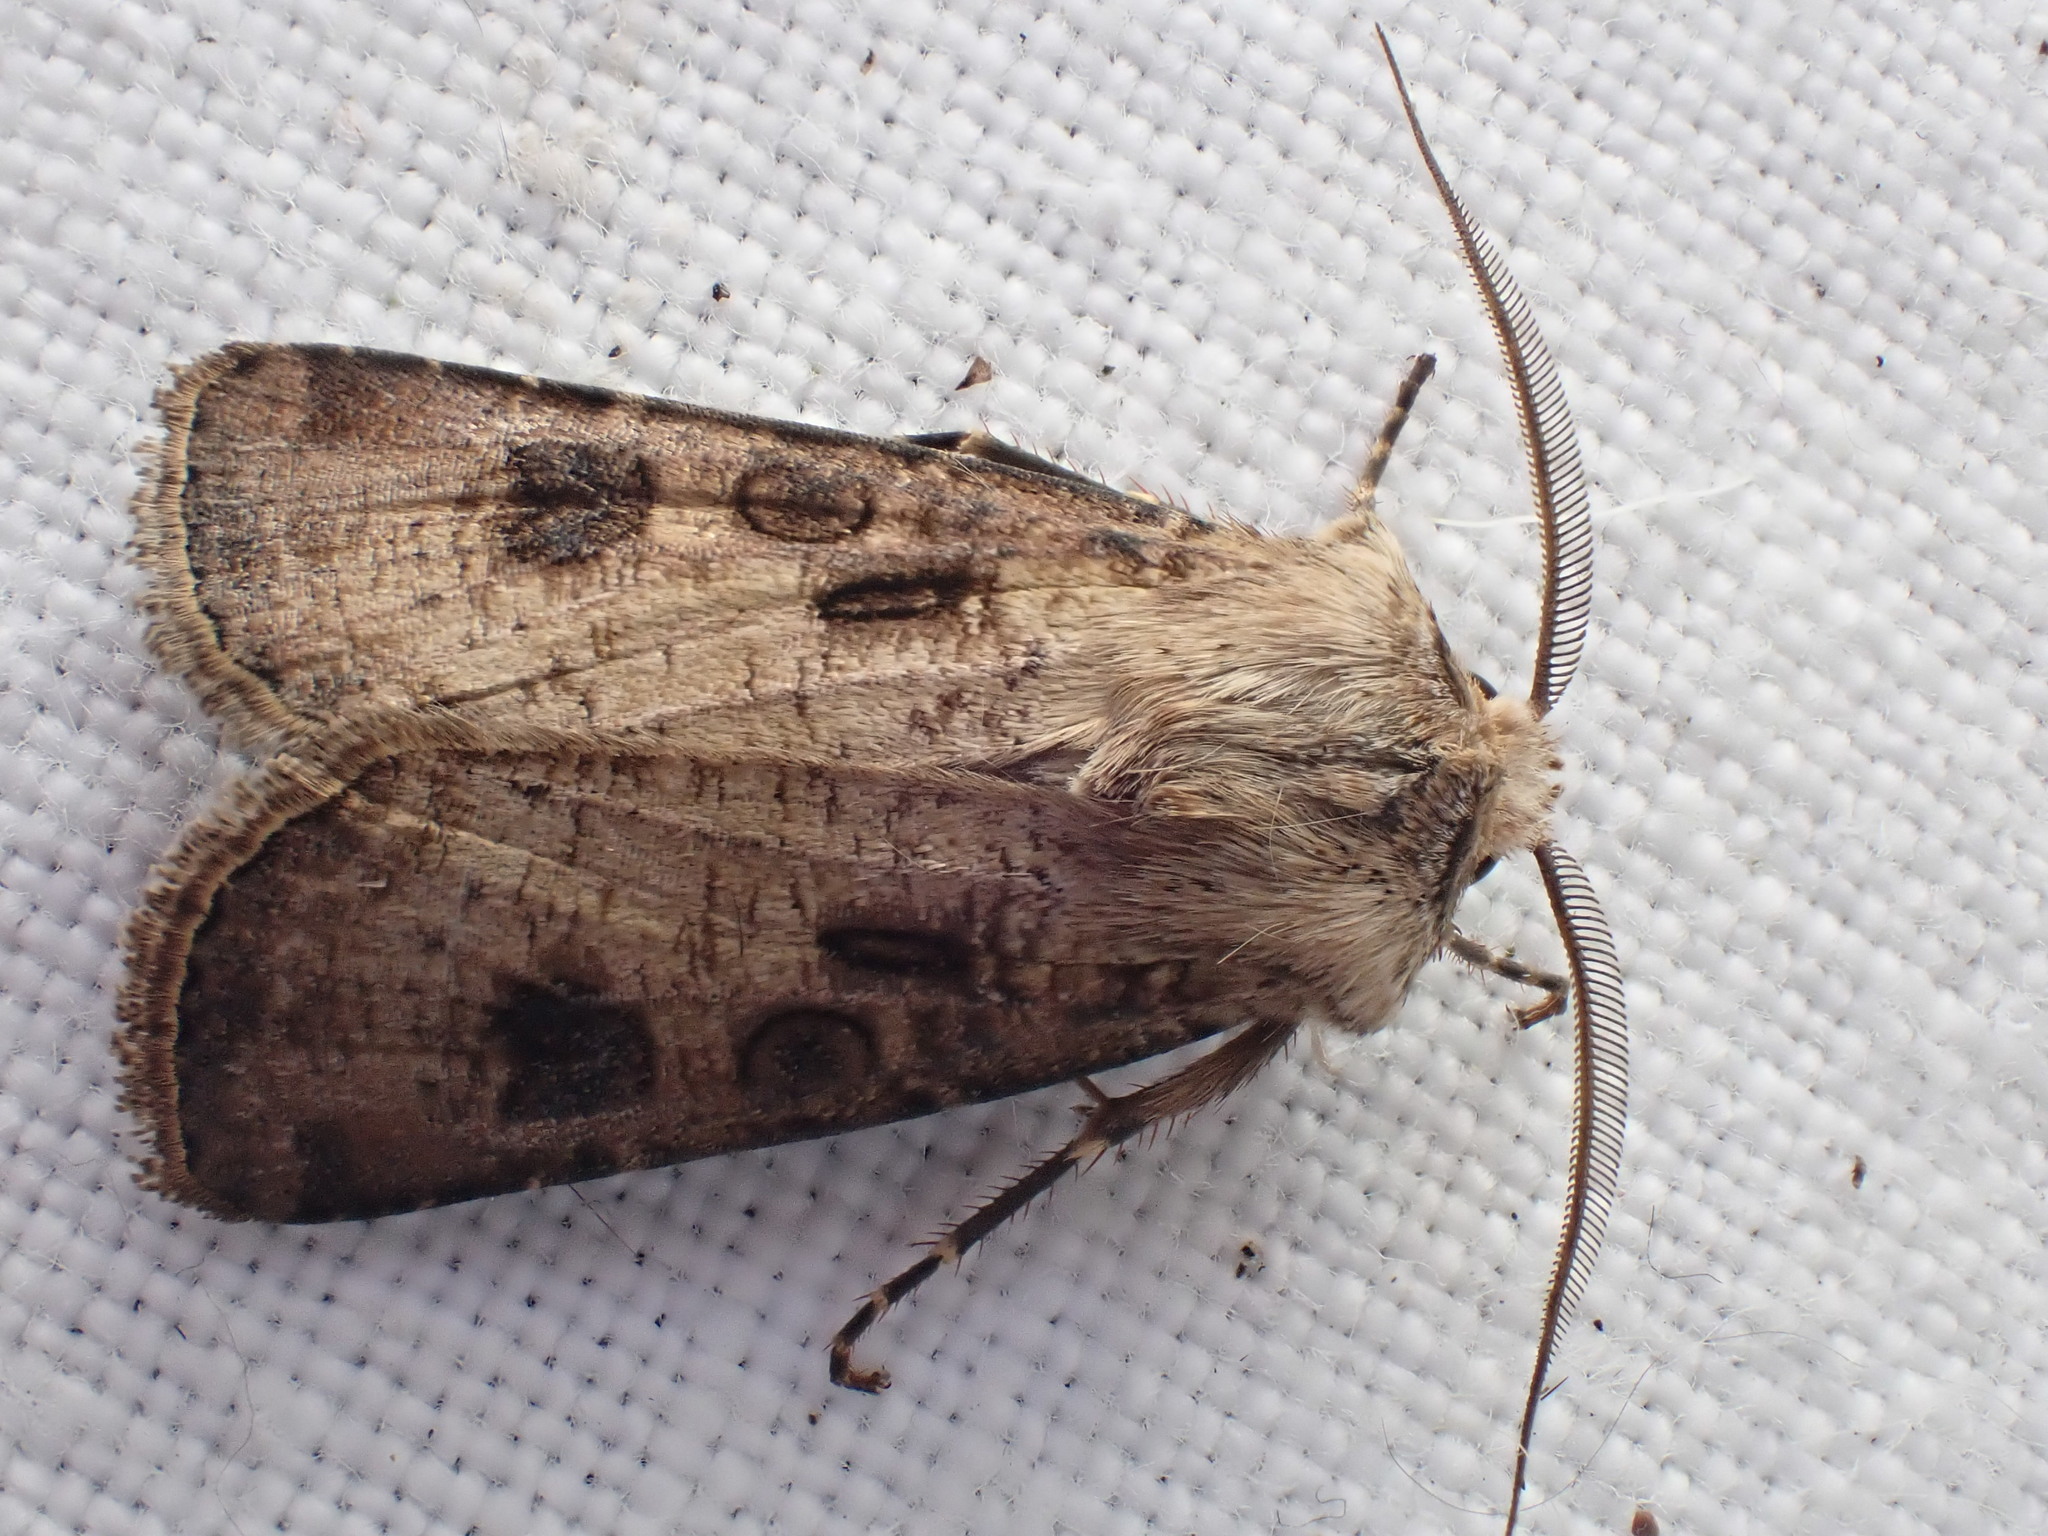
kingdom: Animalia
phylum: Arthropoda
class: Insecta
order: Lepidoptera
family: Noctuidae
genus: Agrotis
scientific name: Agrotis clavis
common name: Heart and club
